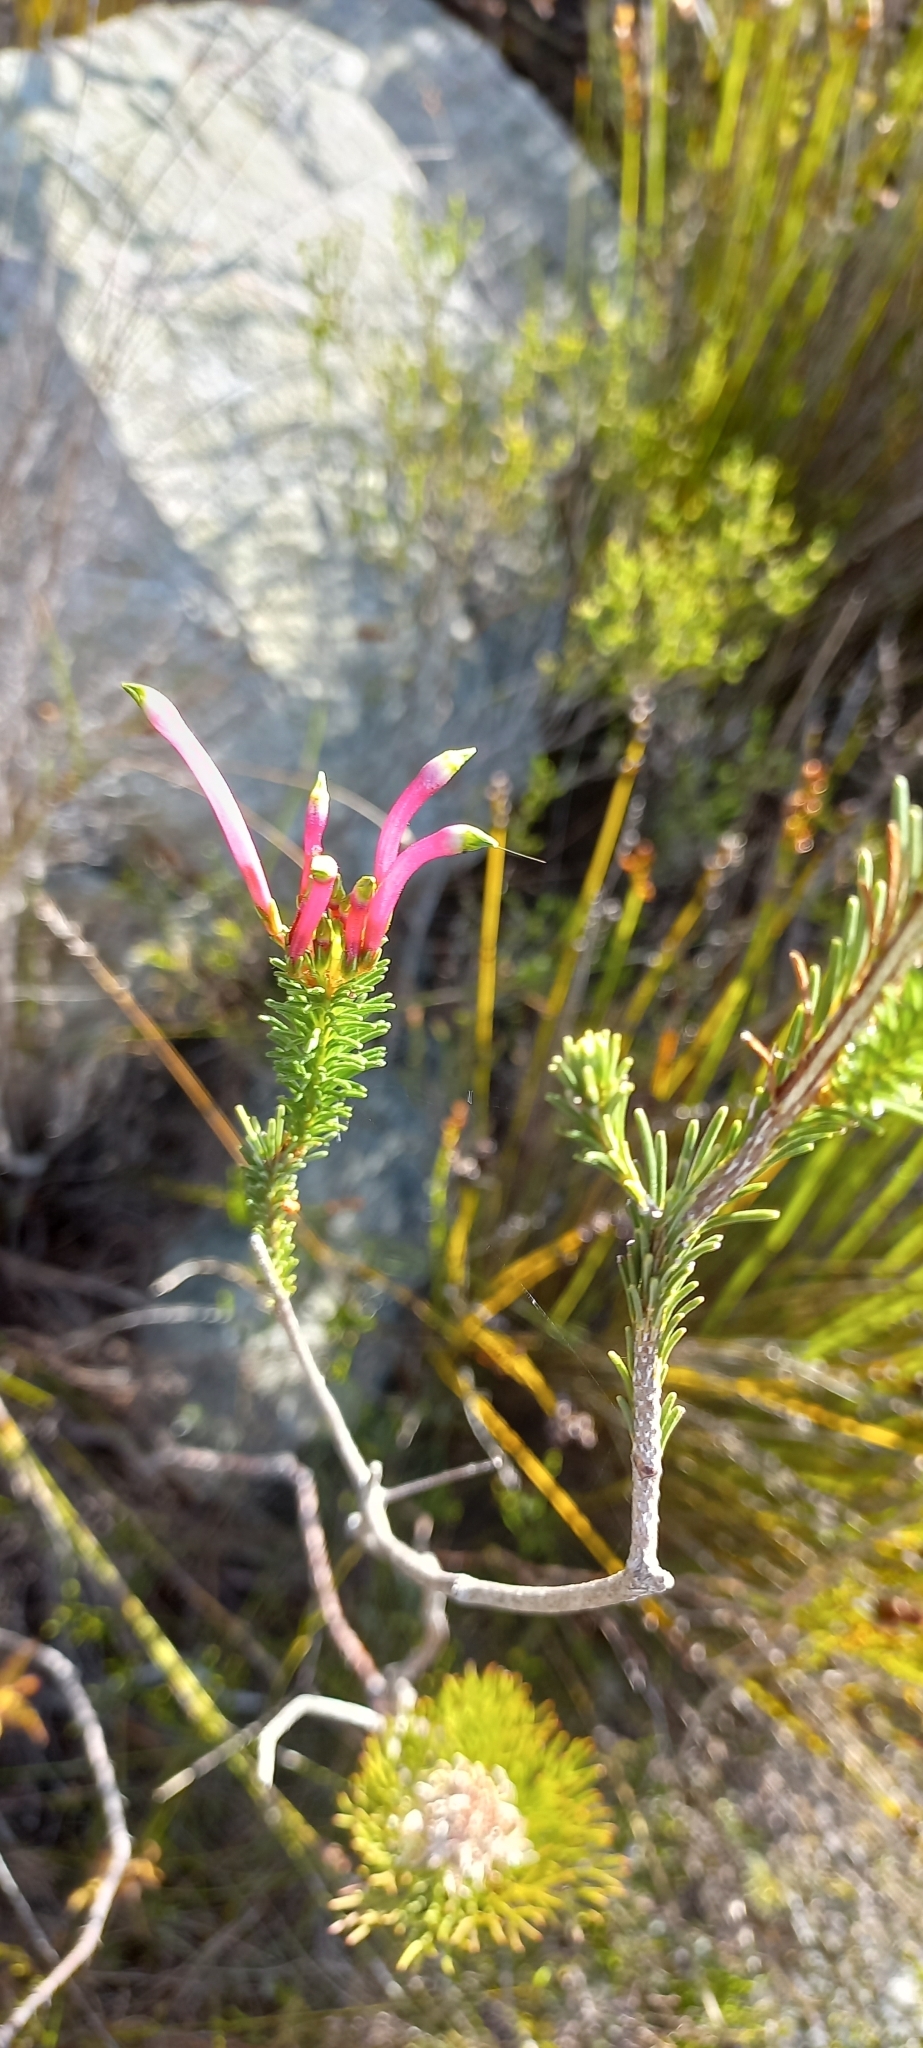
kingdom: Plantae
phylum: Tracheophyta
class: Magnoliopsida
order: Ericales
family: Ericaceae
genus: Erica
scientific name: Erica fascicularis
